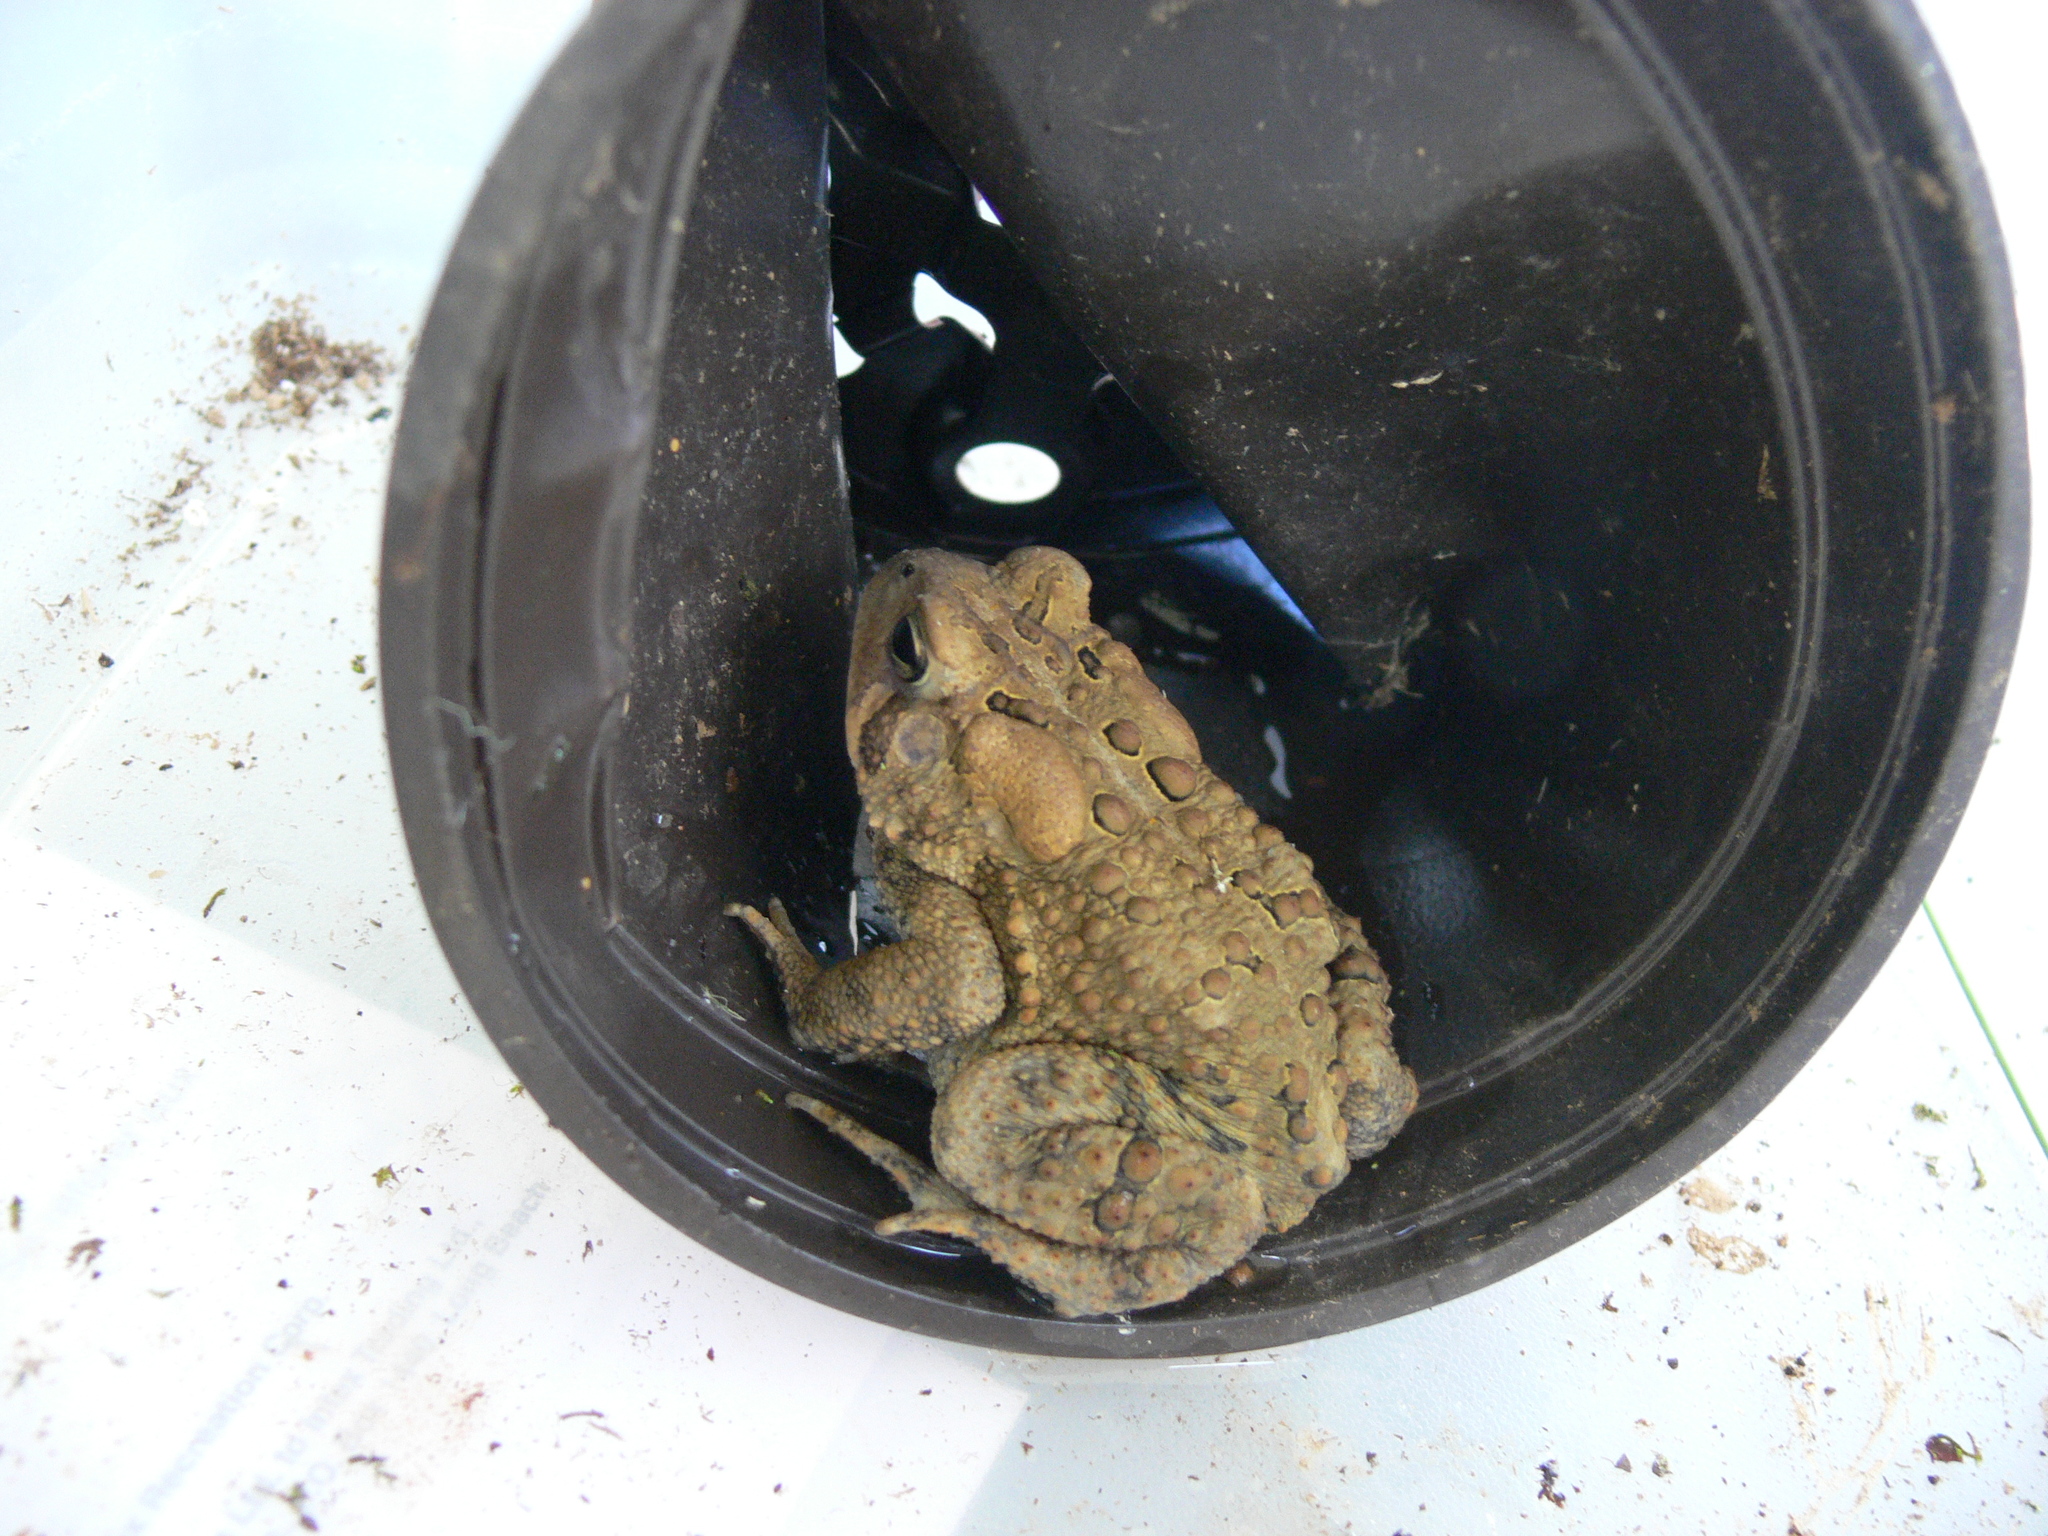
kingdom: Animalia
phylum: Chordata
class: Amphibia
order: Anura
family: Bufonidae
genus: Anaxyrus
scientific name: Anaxyrus americanus
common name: American toad
